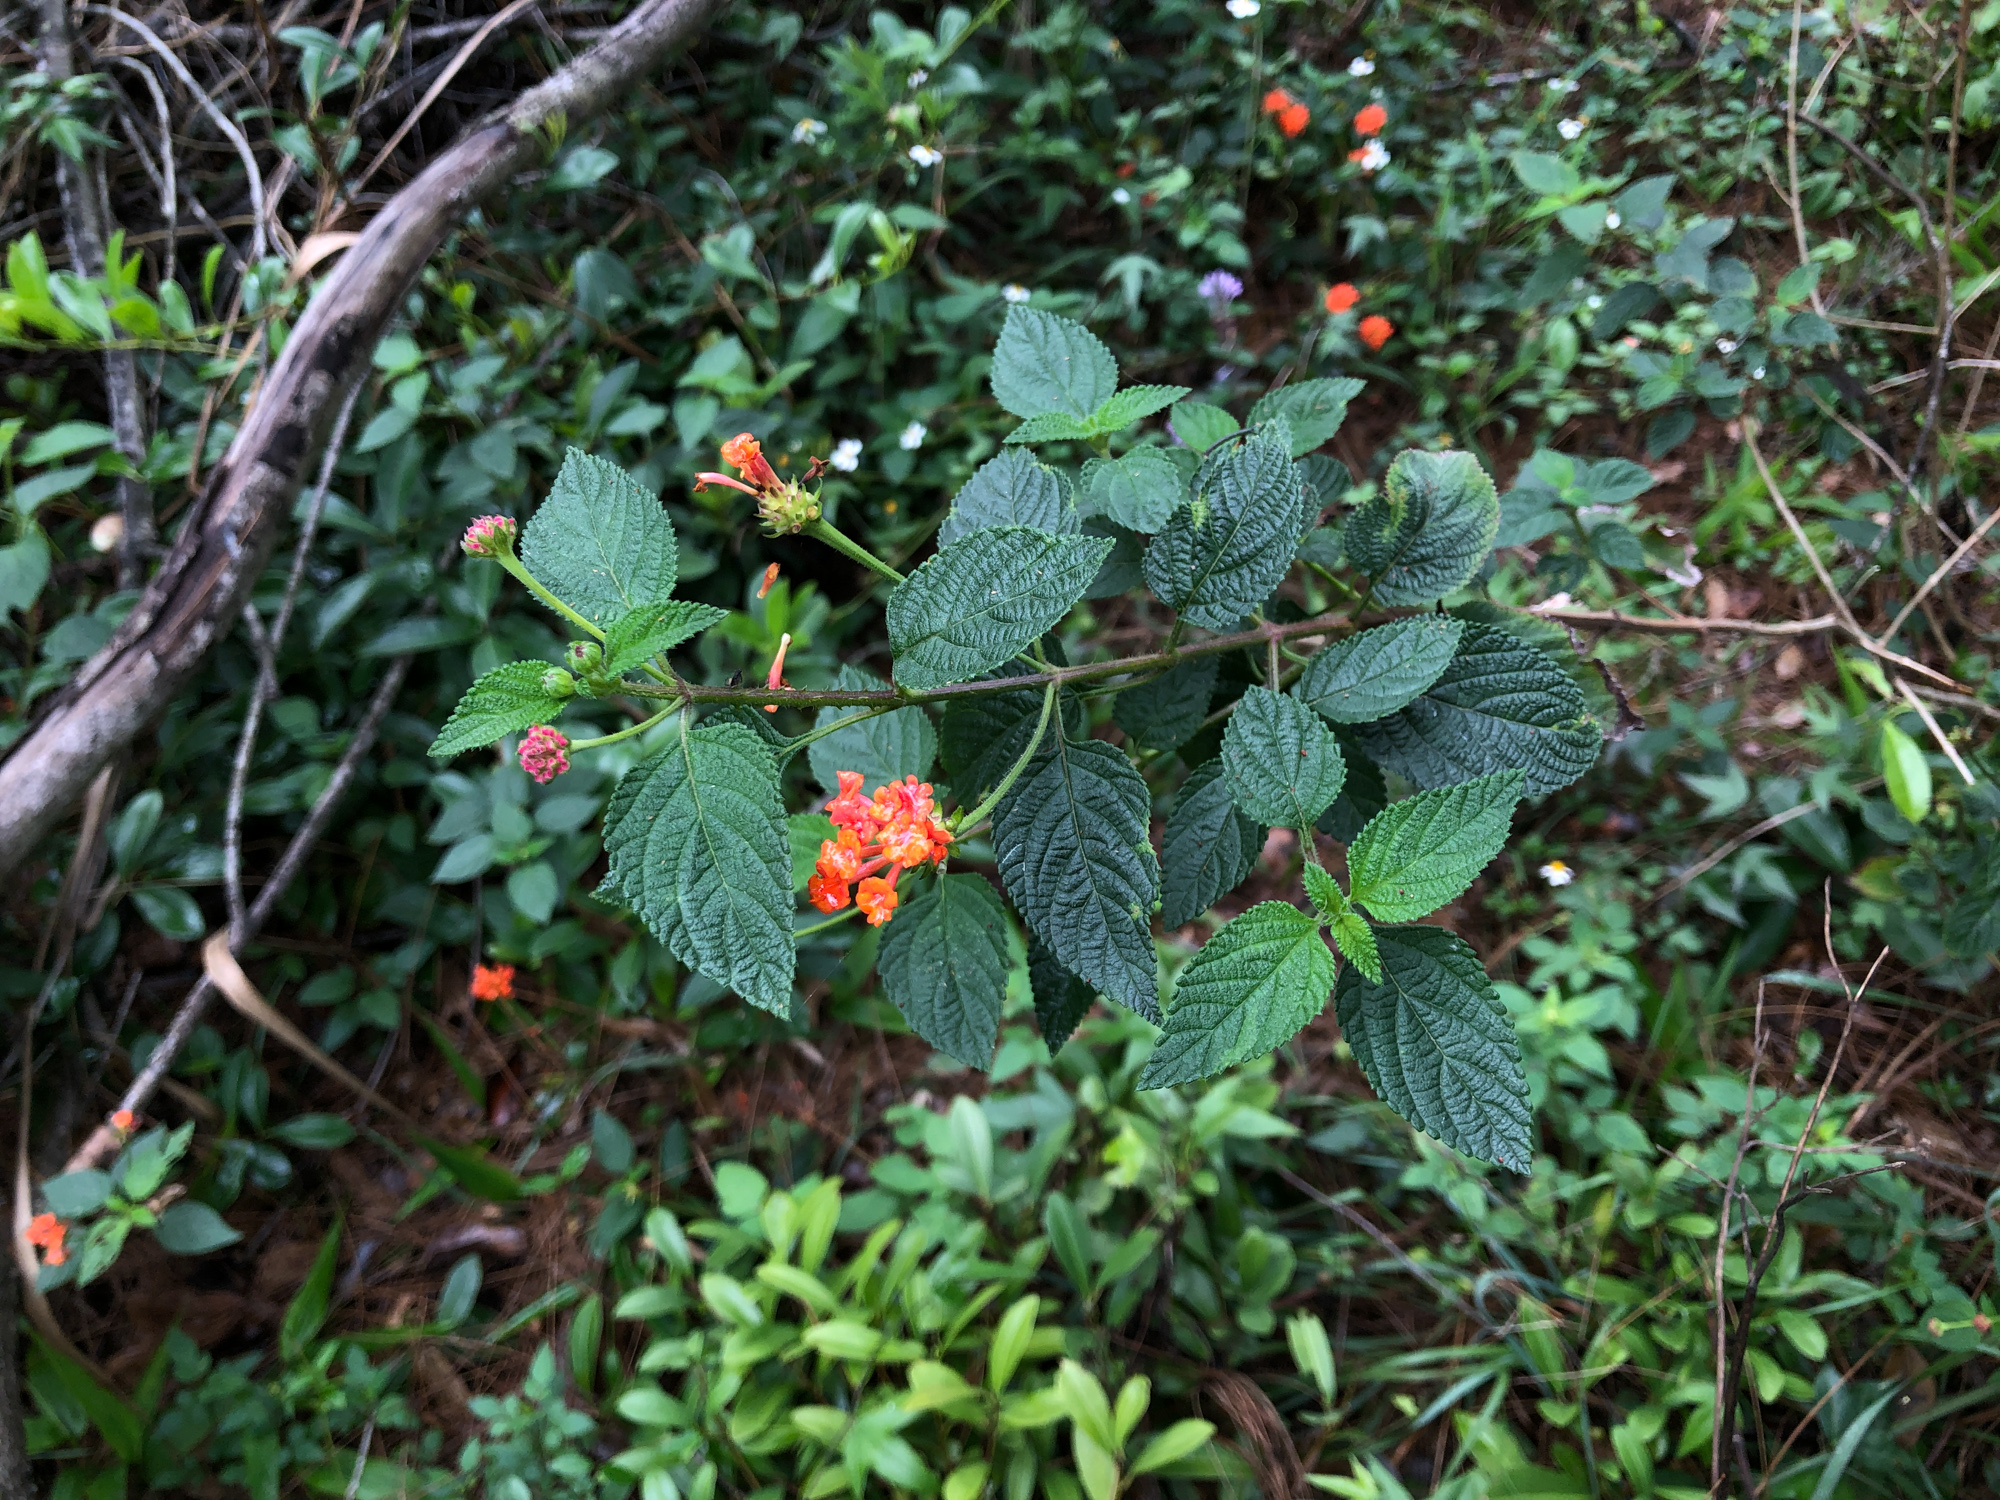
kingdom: Plantae
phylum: Tracheophyta
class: Magnoliopsida
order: Lamiales
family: Verbenaceae
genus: Lantana
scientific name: Lantana camara
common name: Lantana
